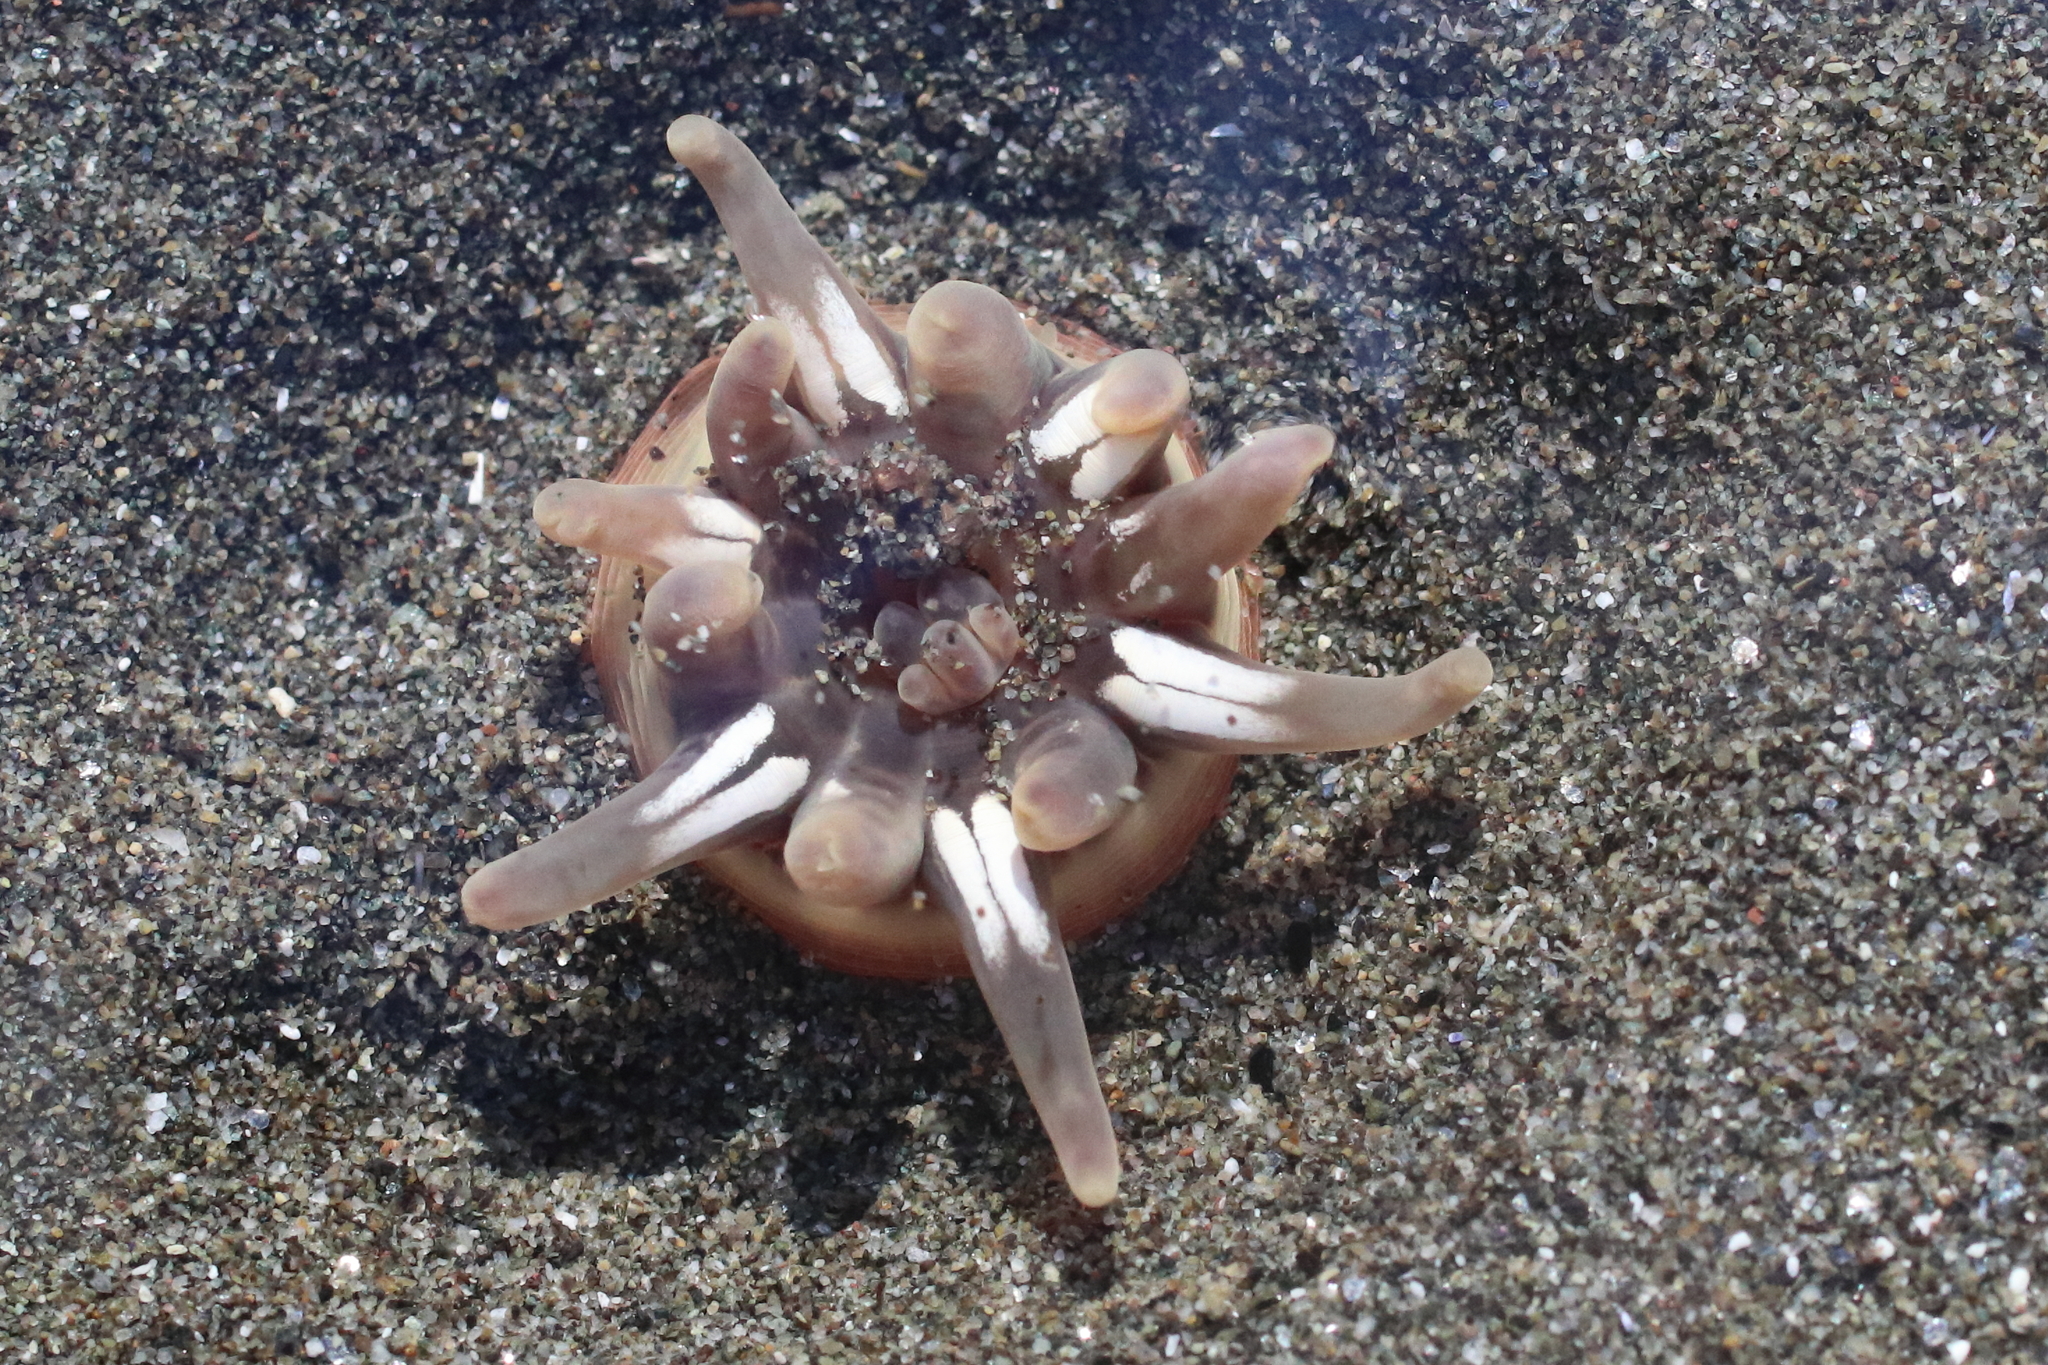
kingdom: Animalia
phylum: Cnidaria
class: Anthozoa
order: Actiniaria
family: Peachiidae
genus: Peachia
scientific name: Peachia quinquecapitata
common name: Twelve-tentacled parasitic anemone
